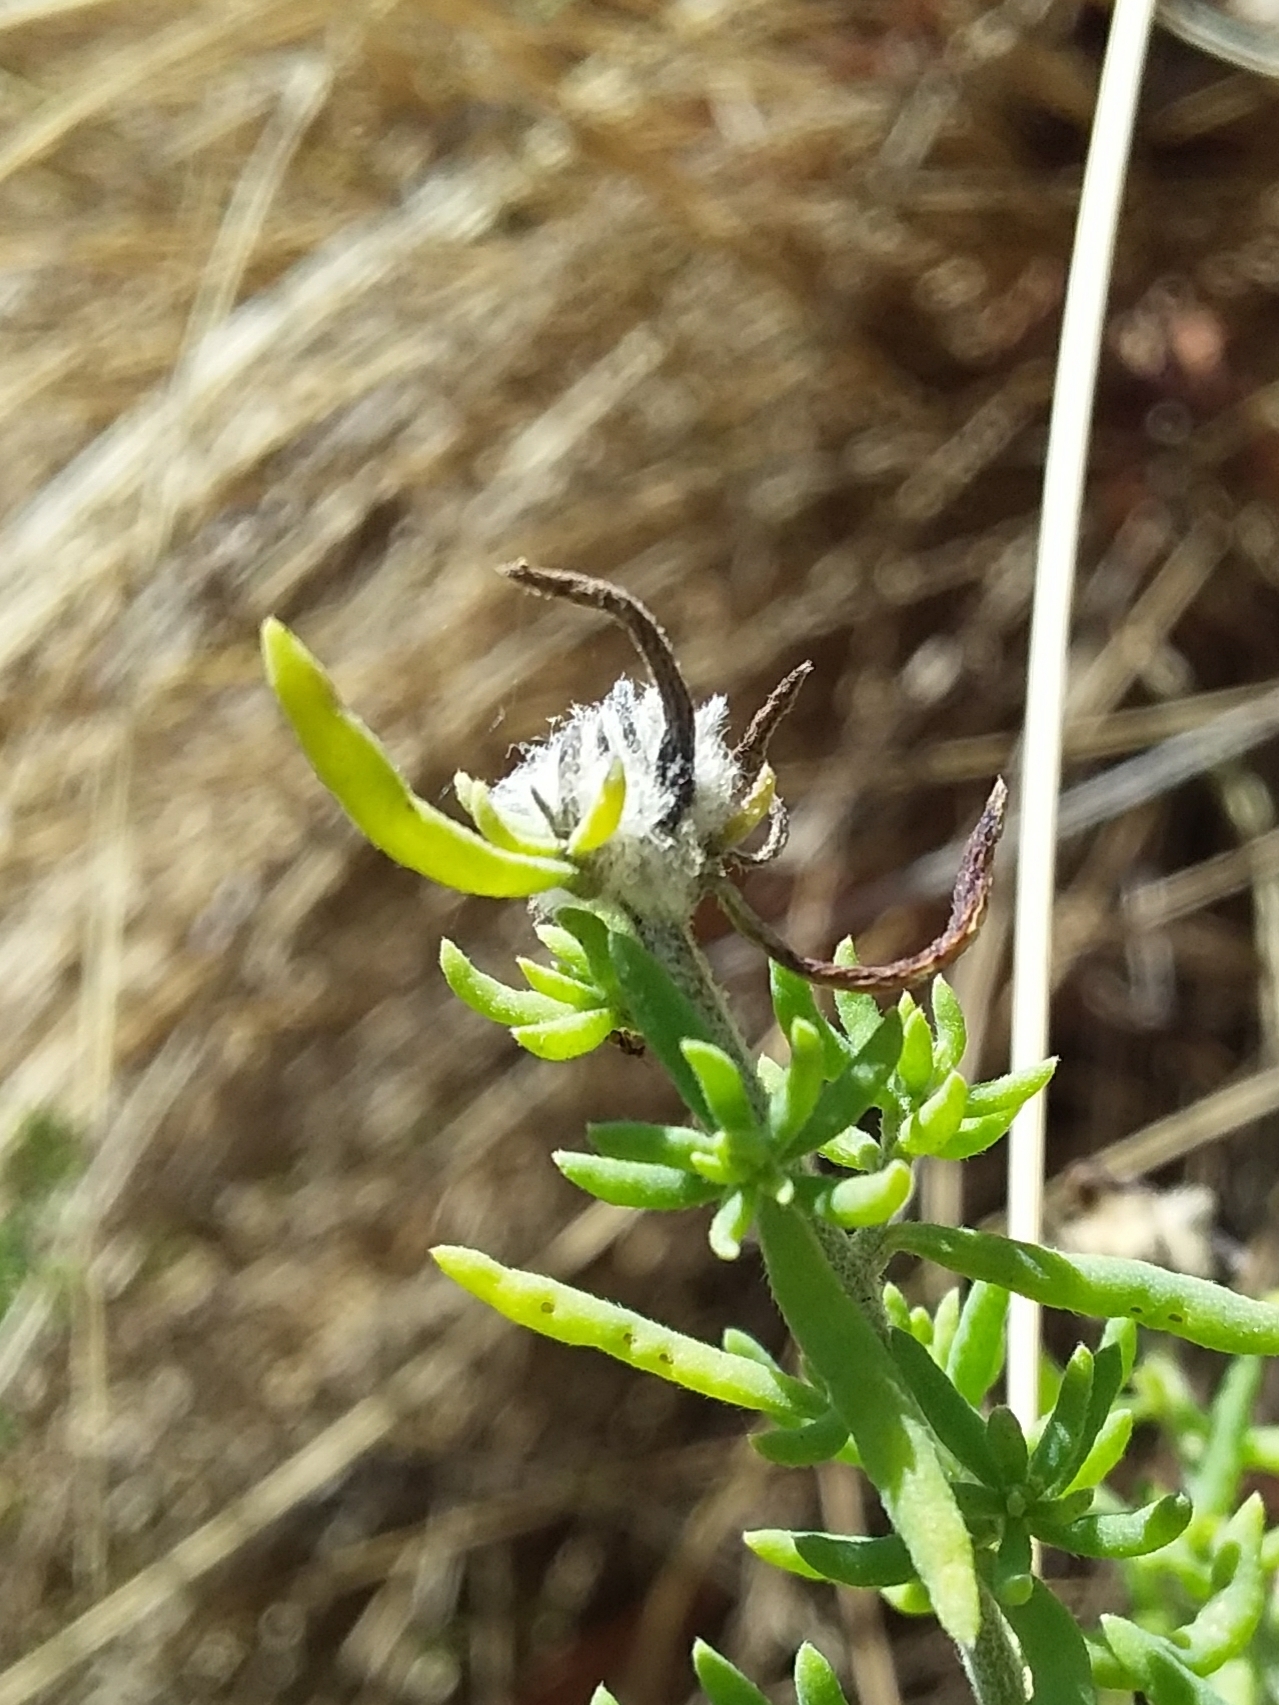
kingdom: Animalia
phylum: Arthropoda
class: Insecta
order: Diptera
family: Cecidomyiidae
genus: Asphondylia
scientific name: Asphondylia tonsura
